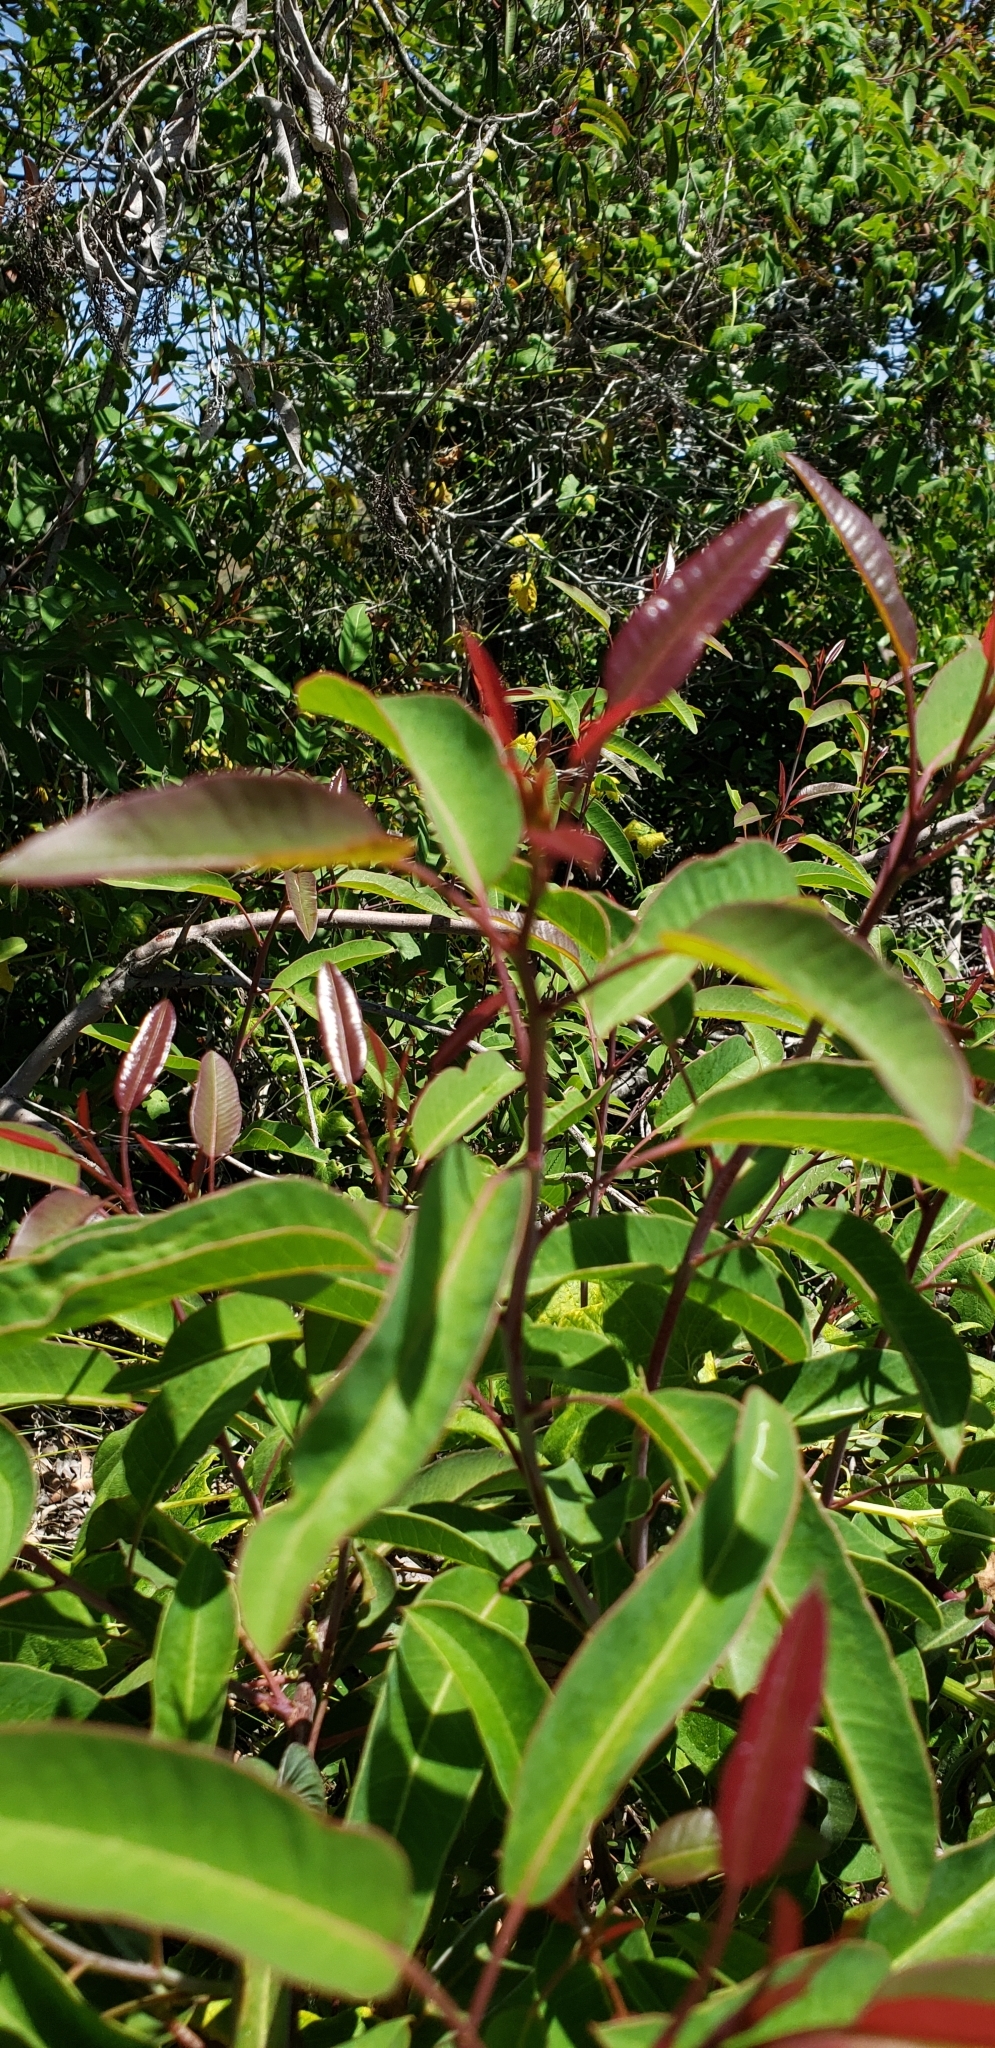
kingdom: Plantae
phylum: Tracheophyta
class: Magnoliopsida
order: Sapindales
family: Anacardiaceae
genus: Malosma
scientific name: Malosma laurina
